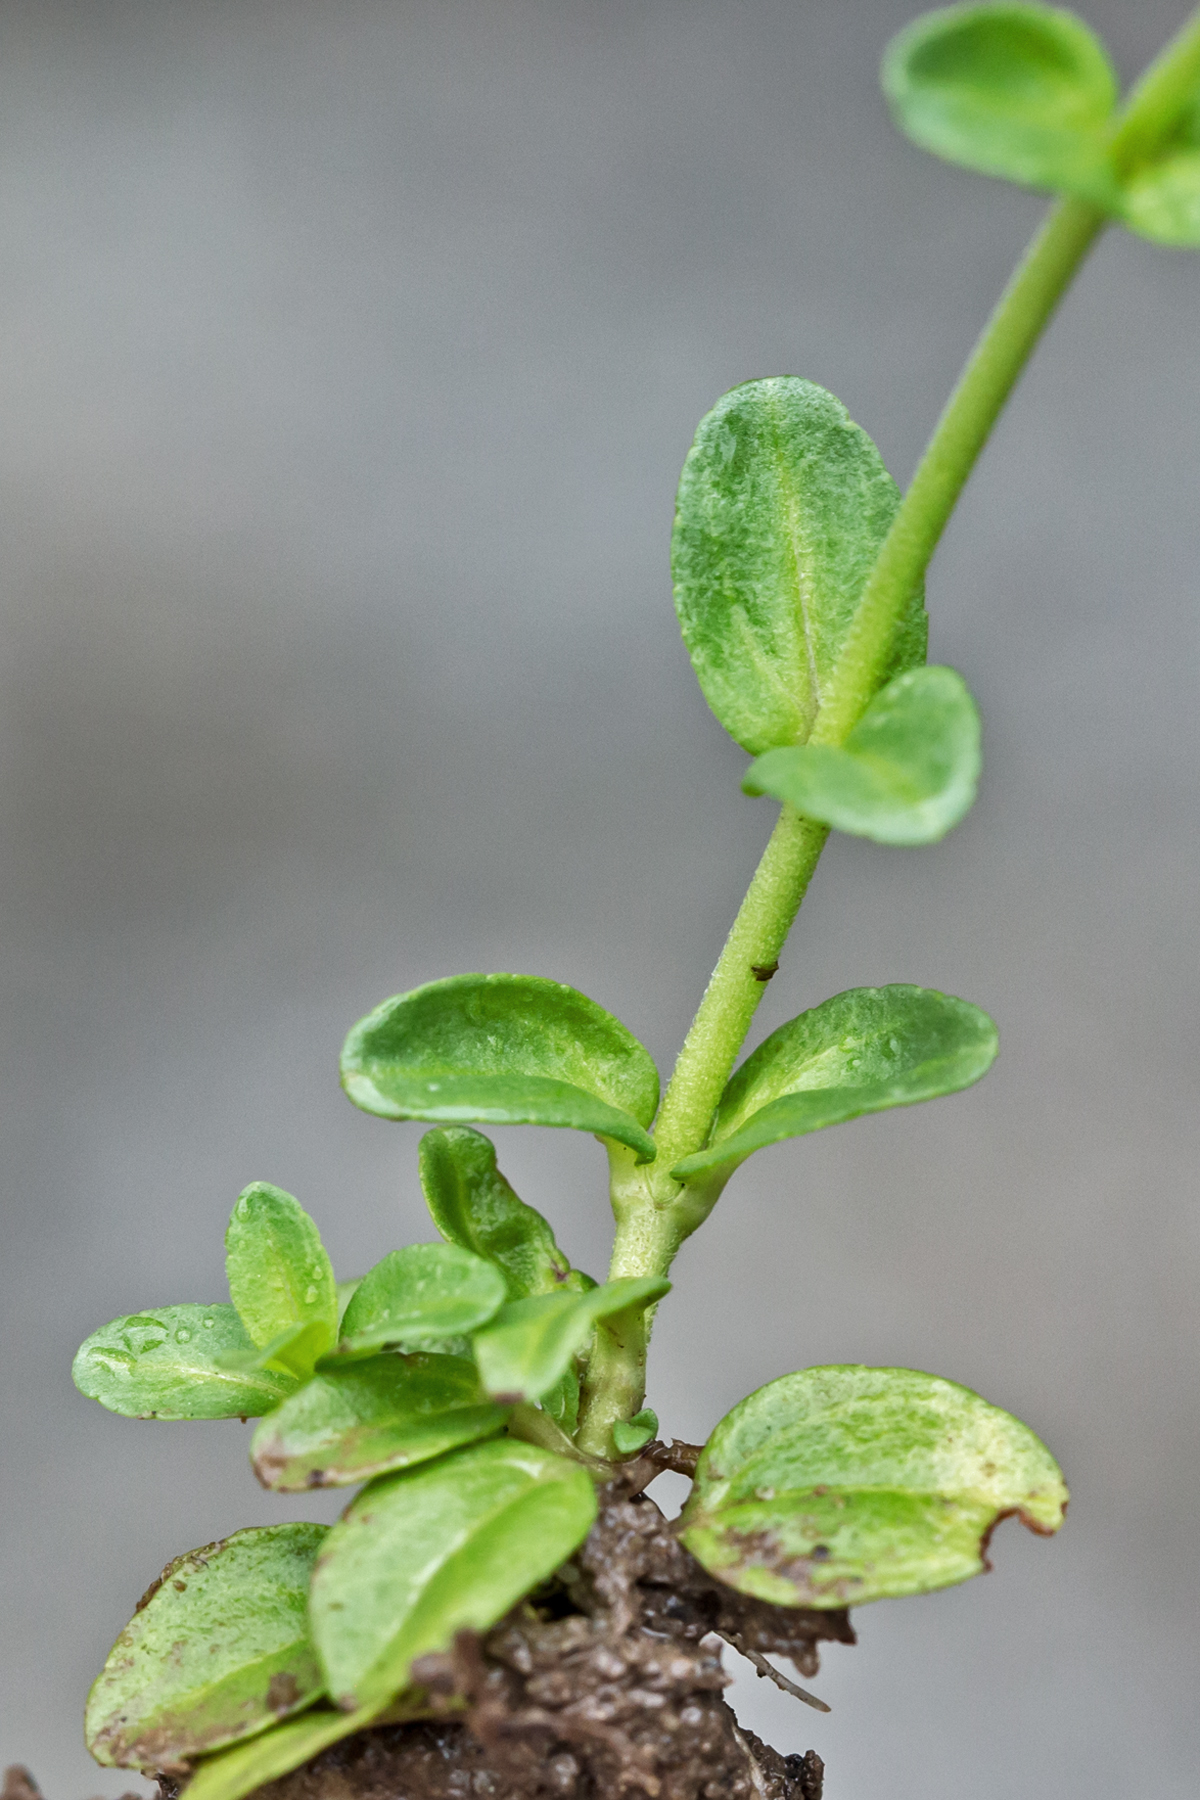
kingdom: Plantae
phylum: Tracheophyta
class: Magnoliopsida
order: Lamiales
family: Plantaginaceae
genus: Veronica
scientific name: Veronica serpyllifolia
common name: Thyme-leaved speedwell
